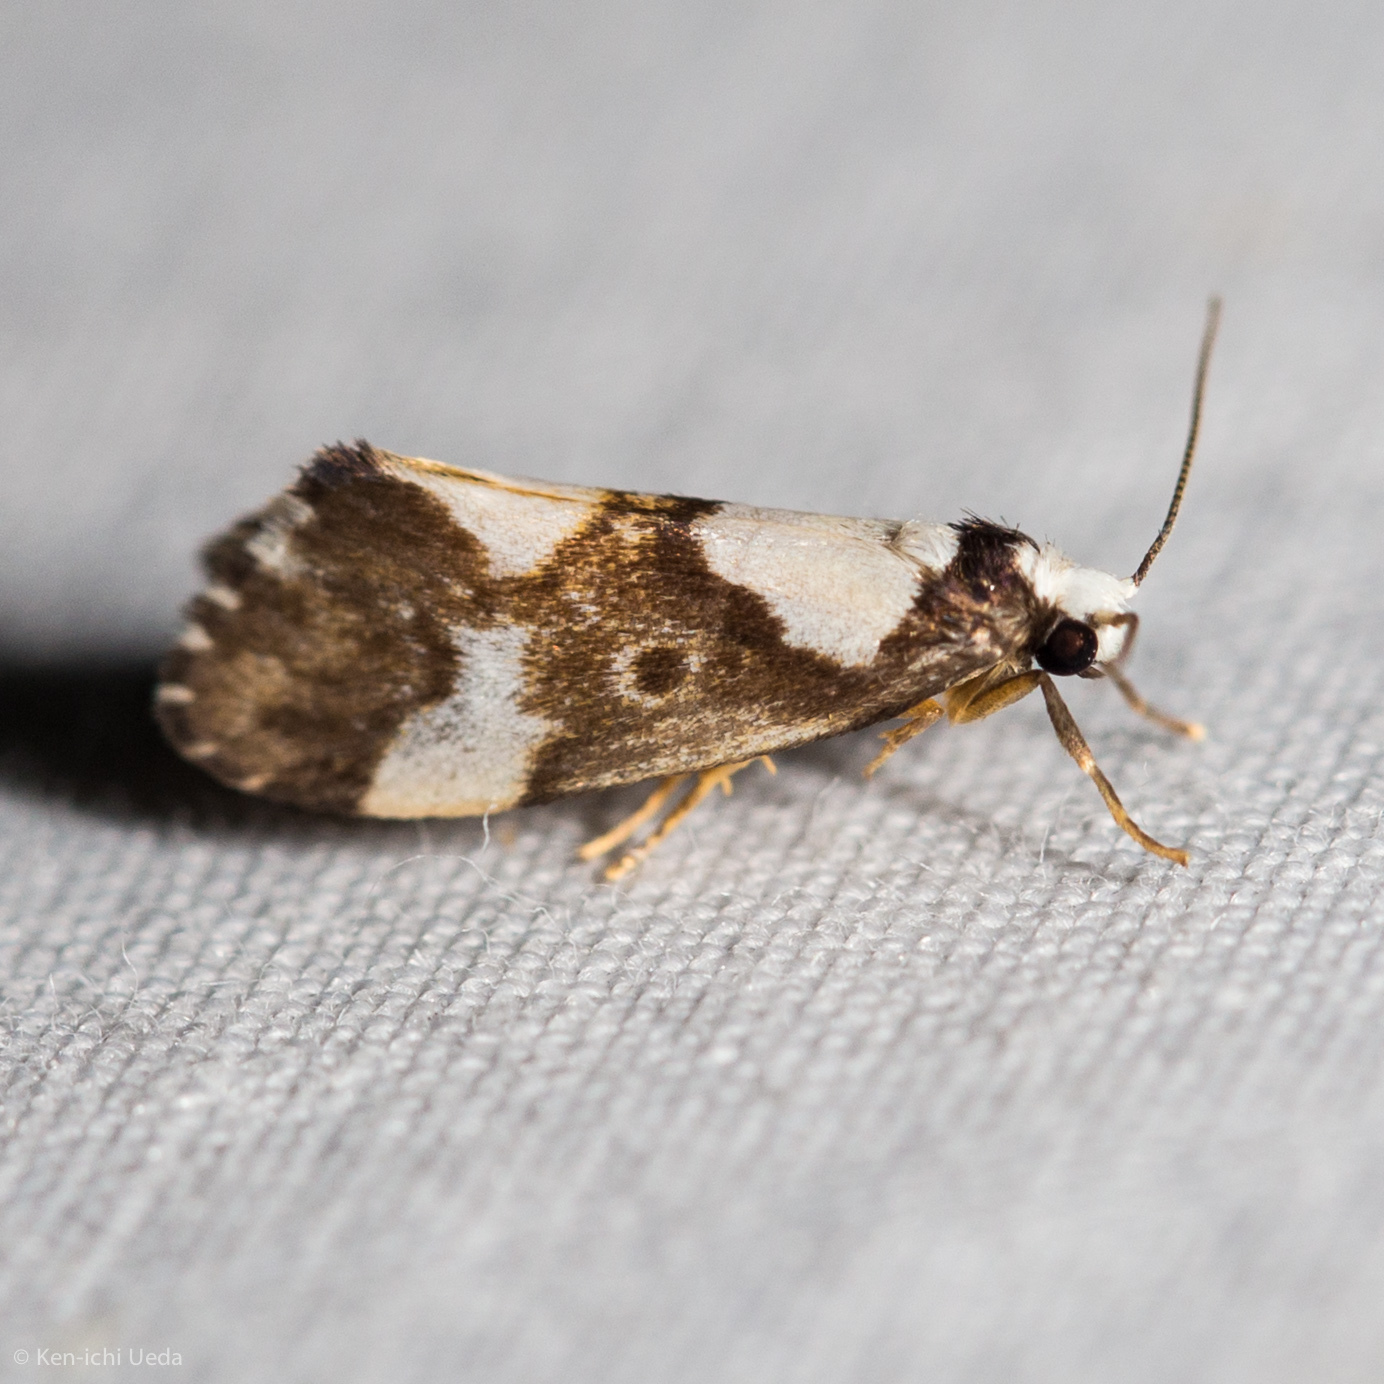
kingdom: Animalia
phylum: Arthropoda
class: Insecta
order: Lepidoptera
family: Erebidae
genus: Philenora
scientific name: Philenora elegans
